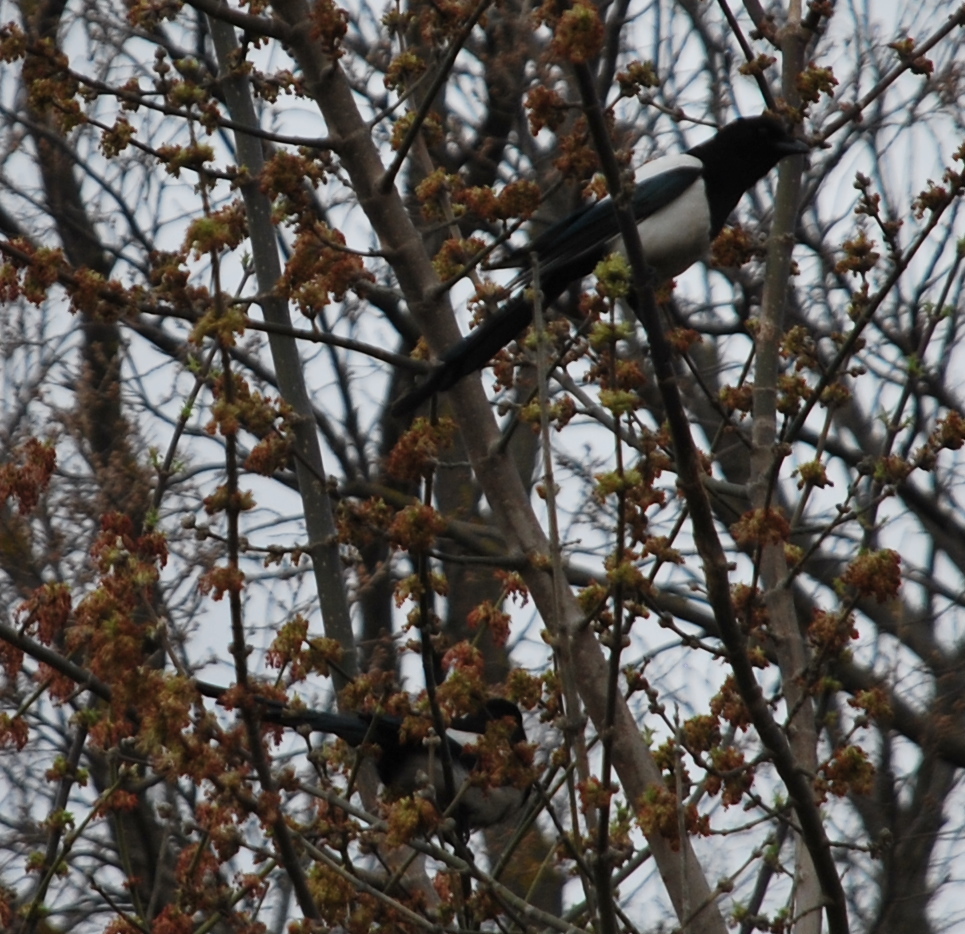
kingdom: Animalia
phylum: Chordata
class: Aves
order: Passeriformes
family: Corvidae
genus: Pica
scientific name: Pica pica
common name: Eurasian magpie
